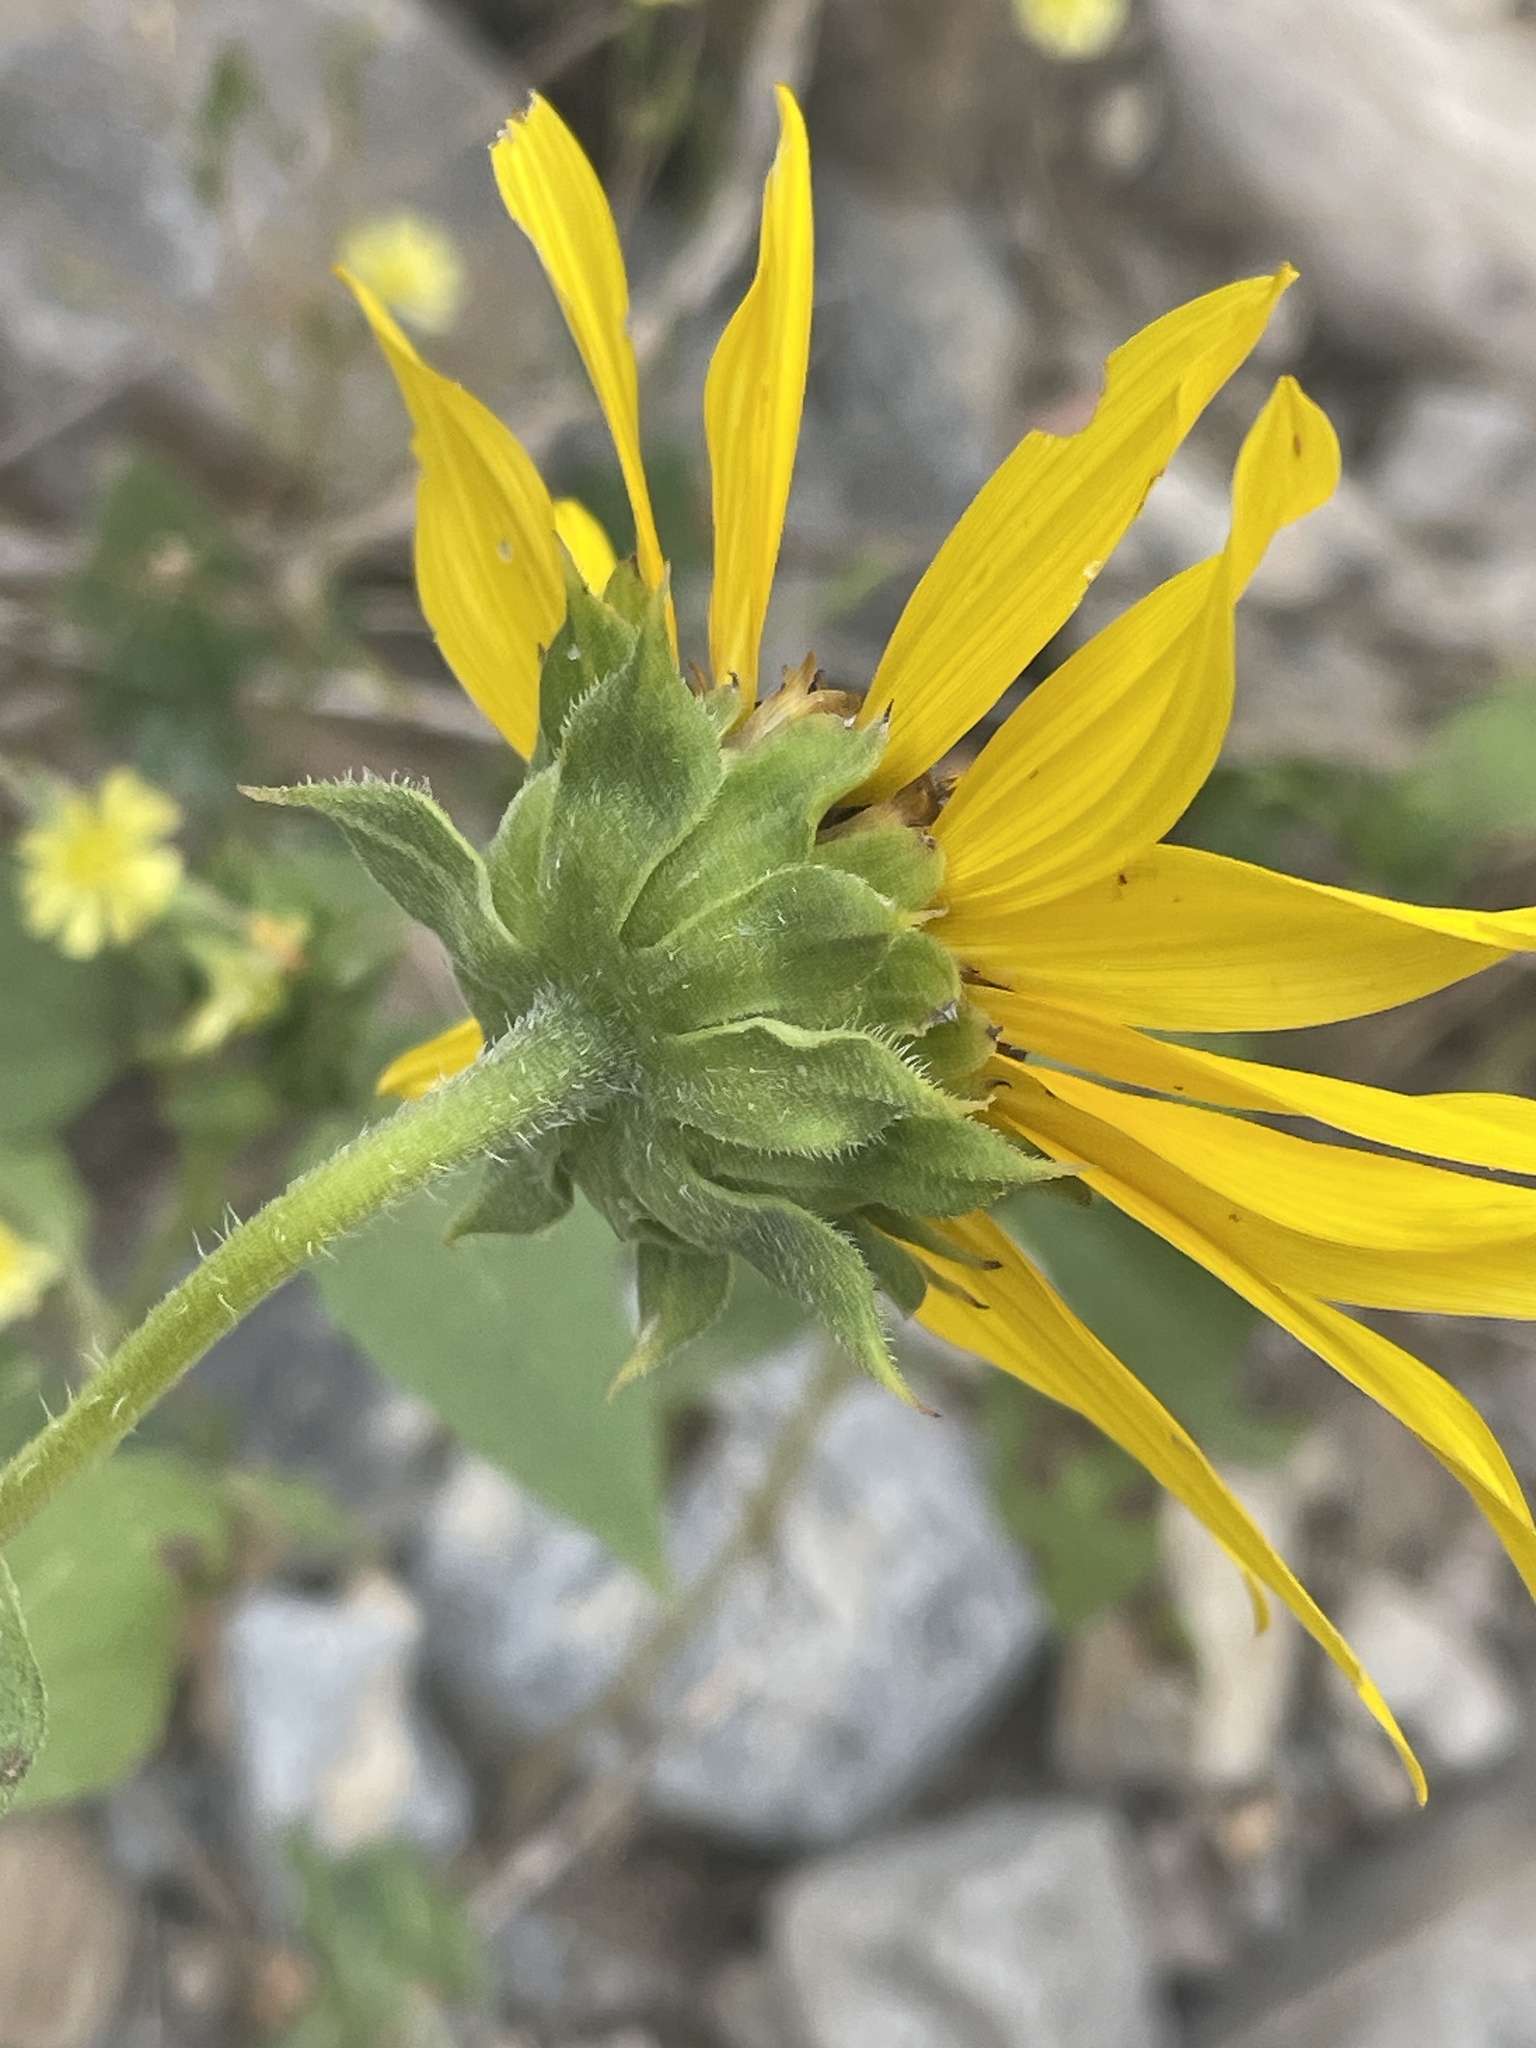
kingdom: Plantae
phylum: Tracheophyta
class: Magnoliopsida
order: Asterales
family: Asteraceae
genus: Helianthus
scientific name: Helianthus annuus
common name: Sunflower
